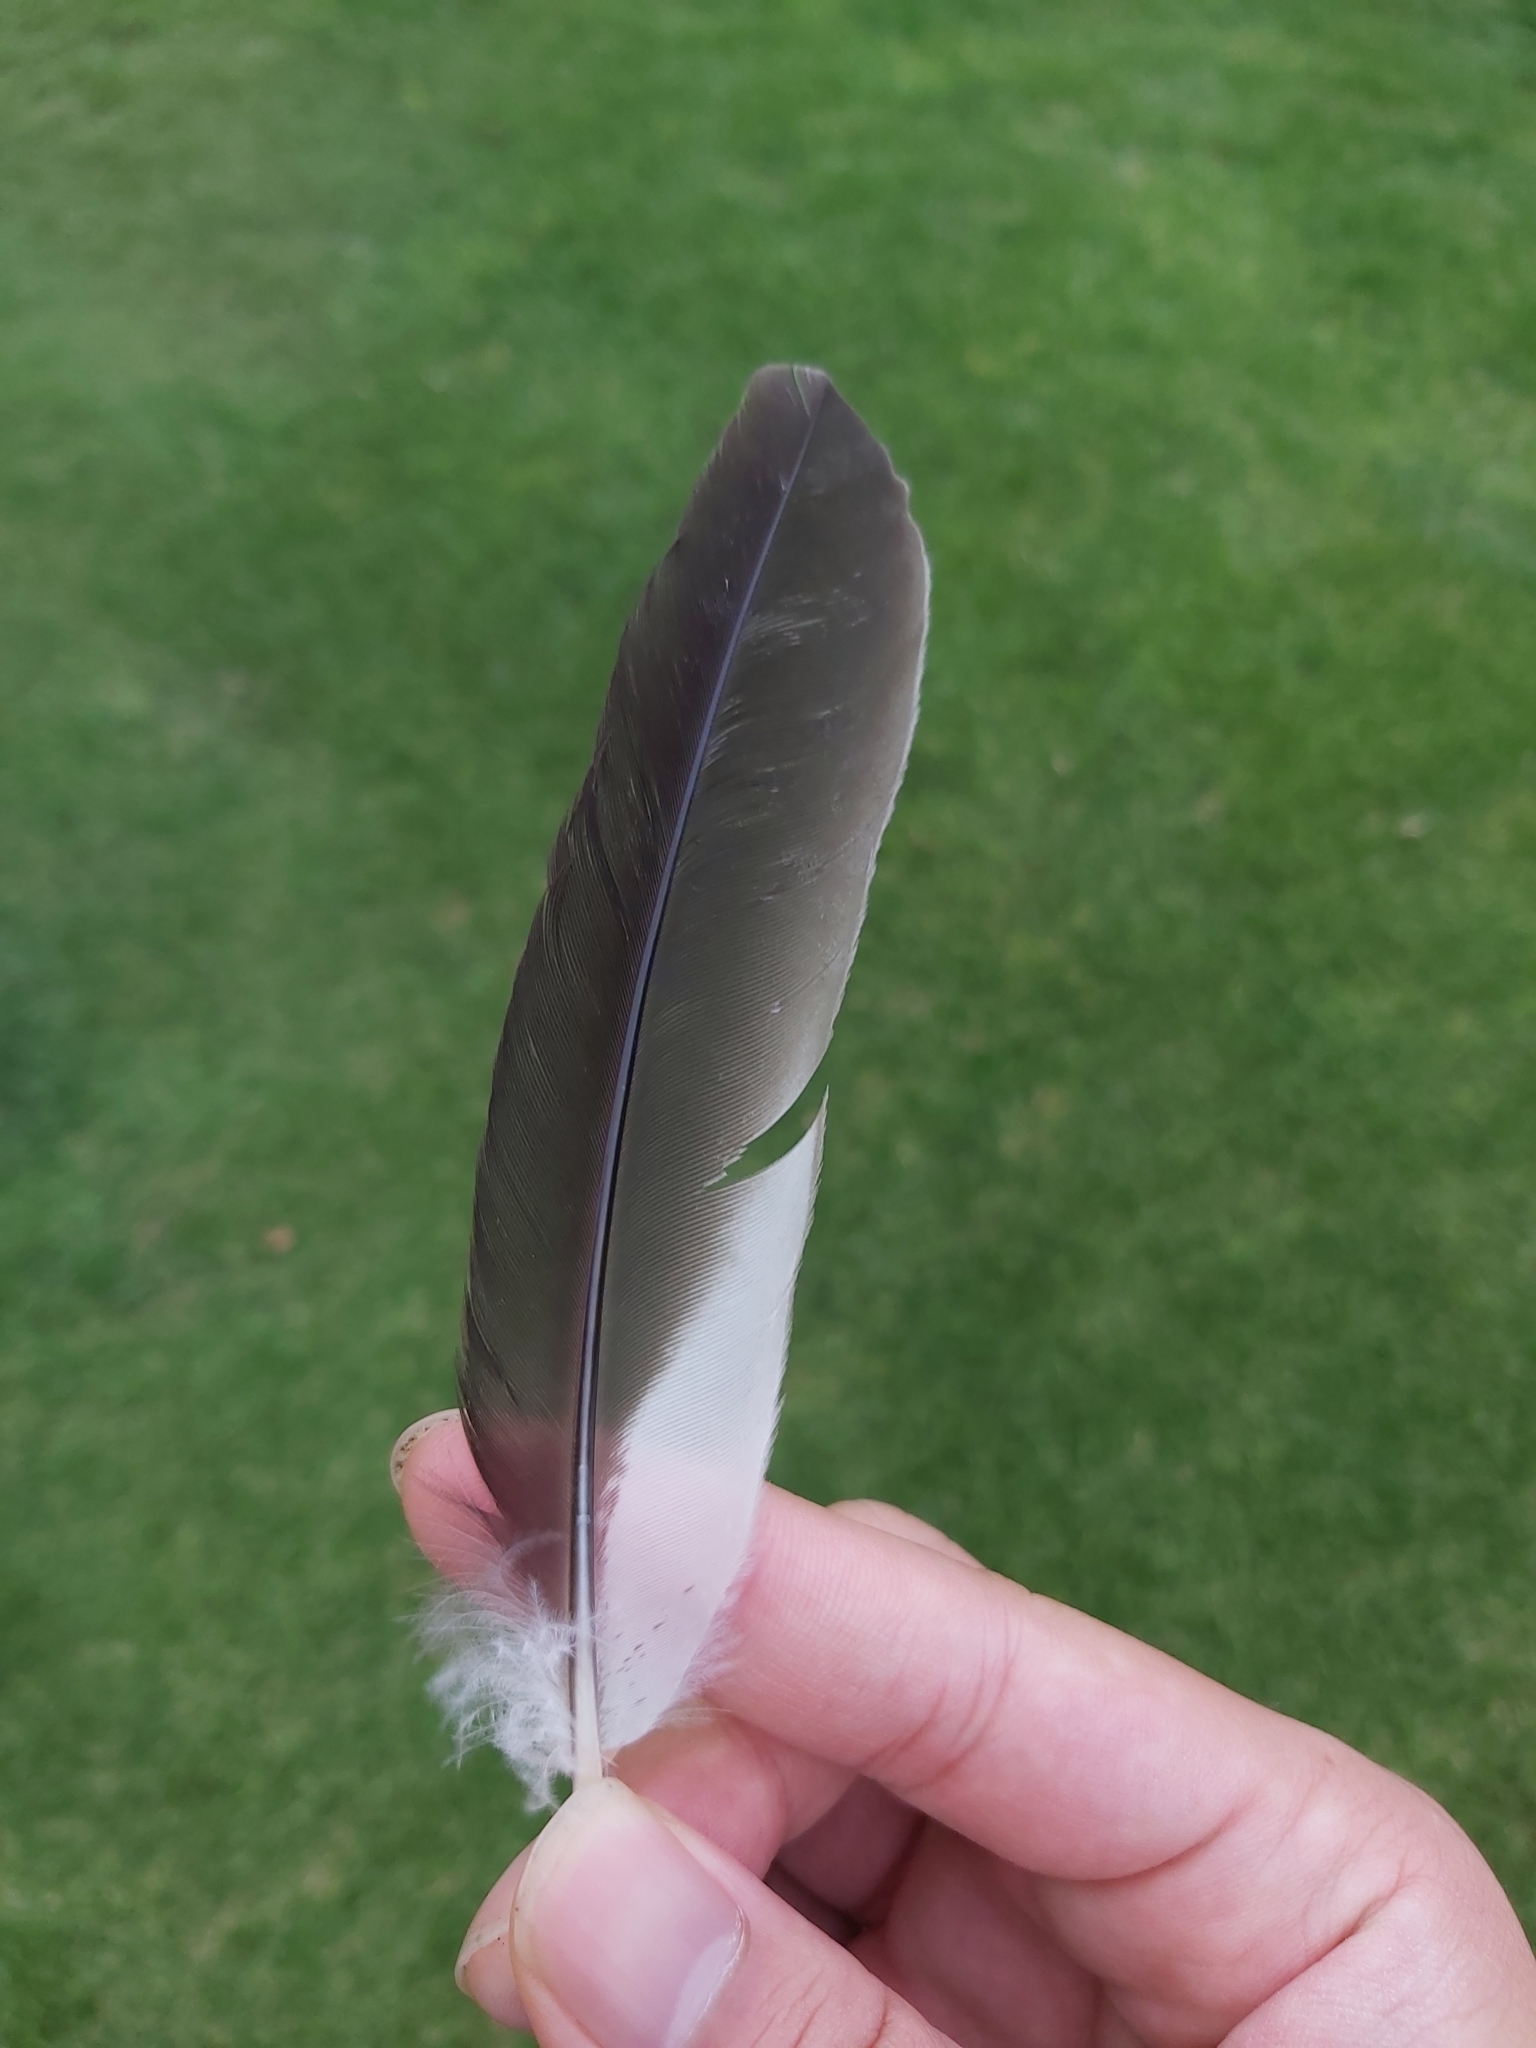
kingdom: Animalia
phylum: Chordata
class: Aves
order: Coraciiformes
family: Alcedinidae
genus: Dacelo
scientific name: Dacelo novaeguineae
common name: Laughing kookaburra
